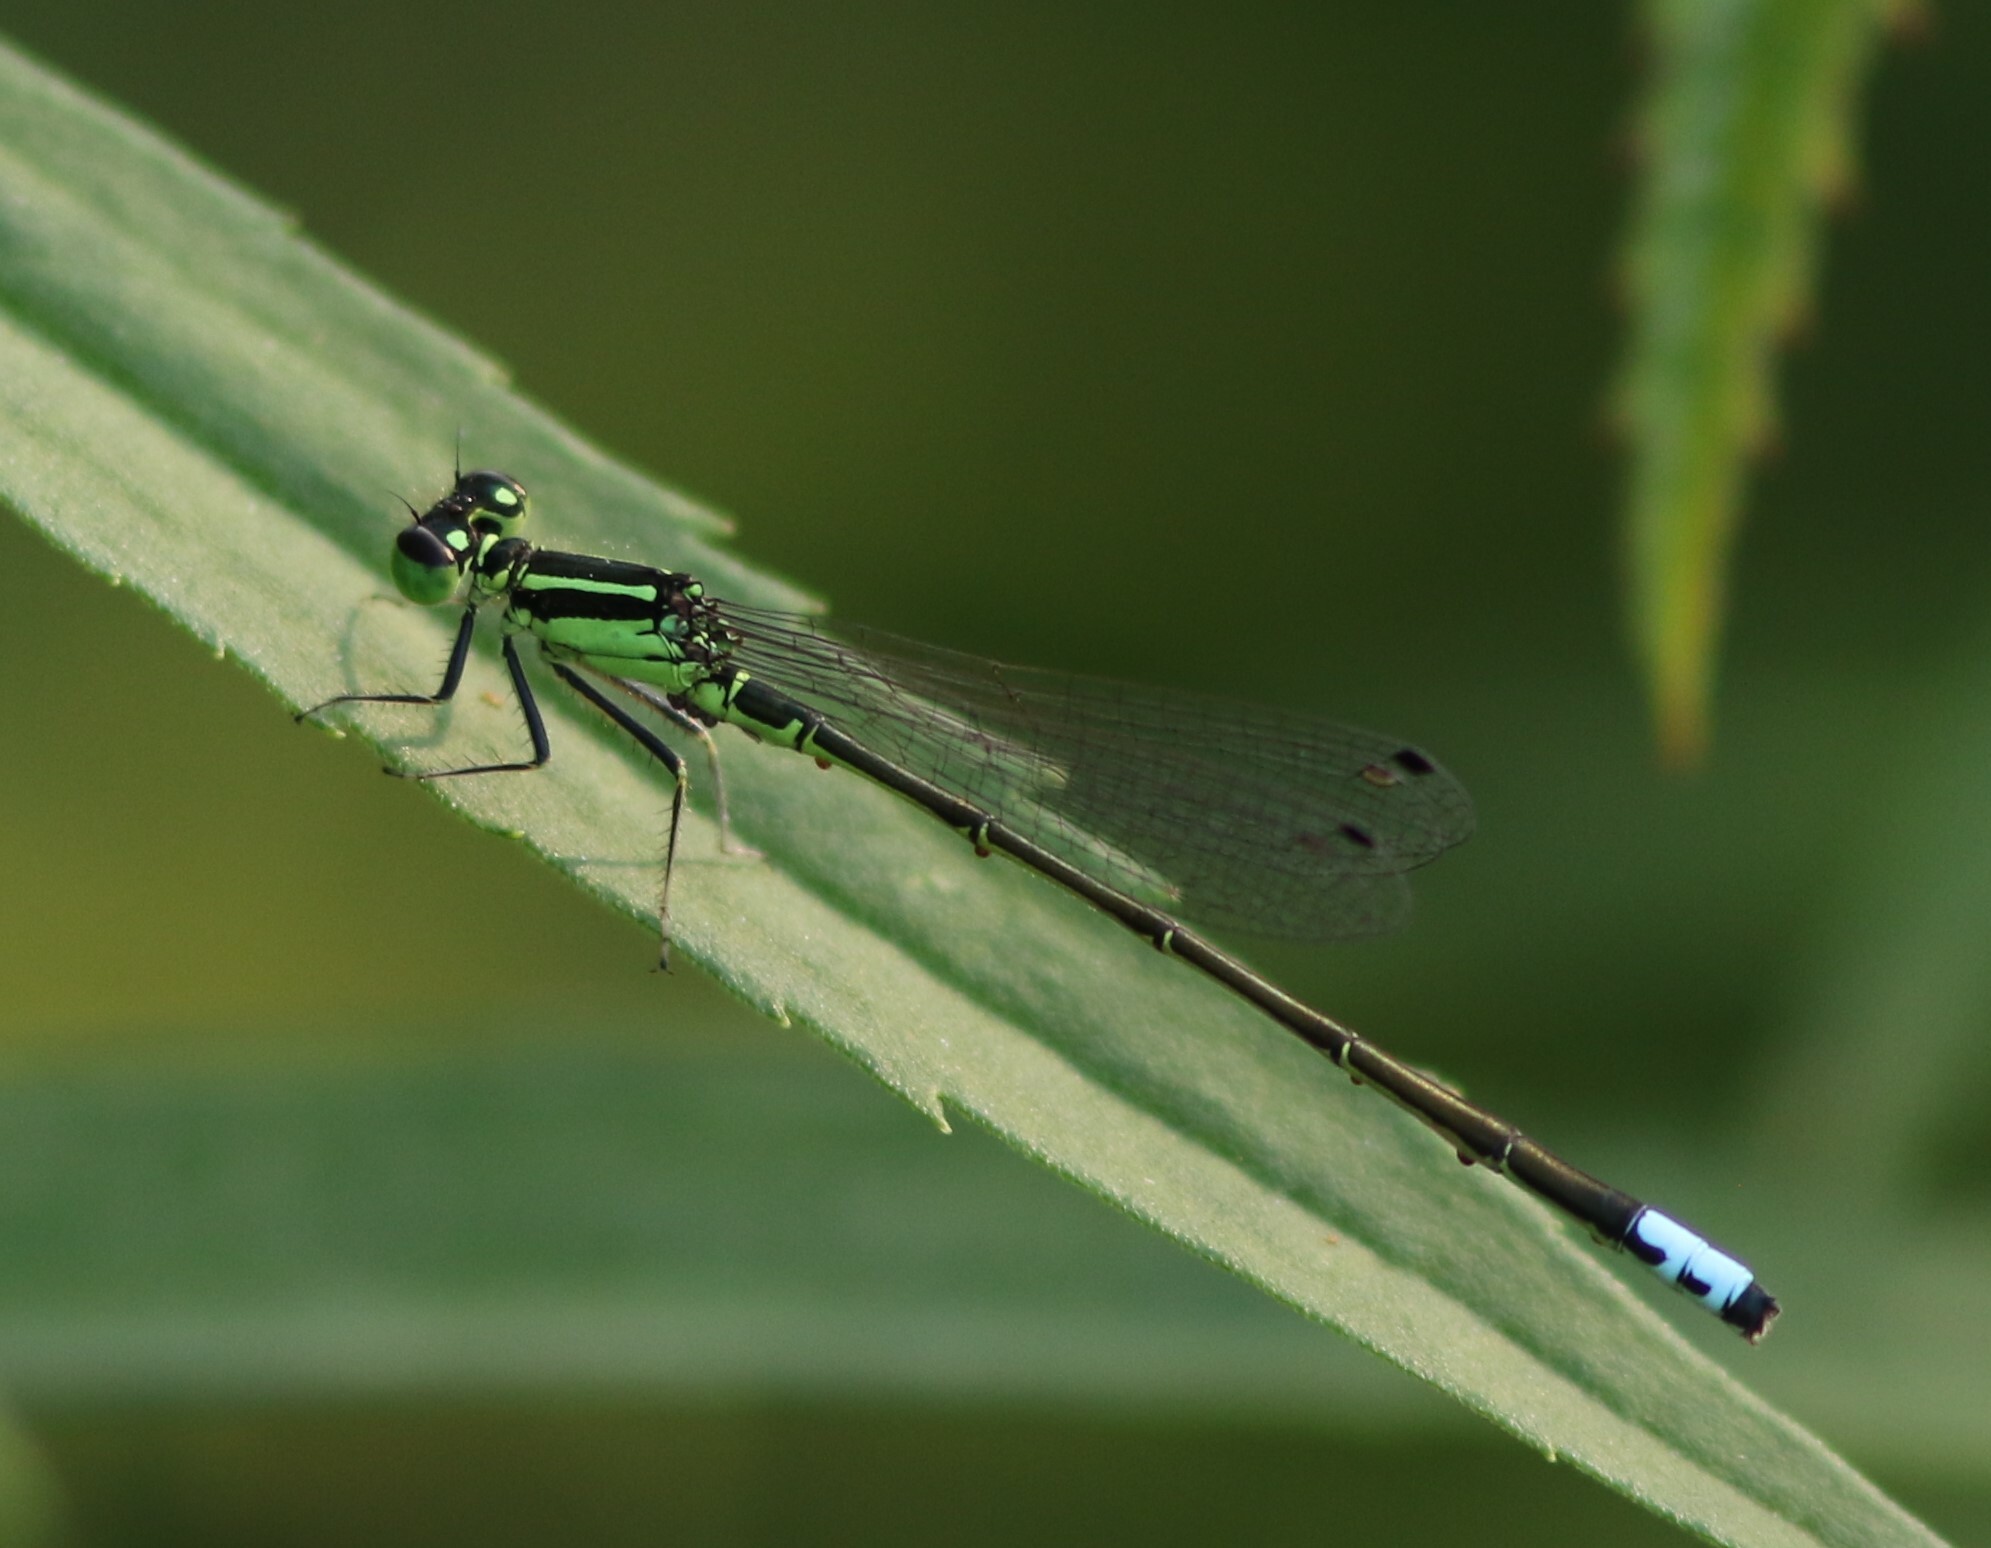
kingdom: Animalia
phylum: Arthropoda
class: Insecta
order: Odonata
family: Coenagrionidae
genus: Ischnura
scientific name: Ischnura verticalis
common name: Eastern forktail
